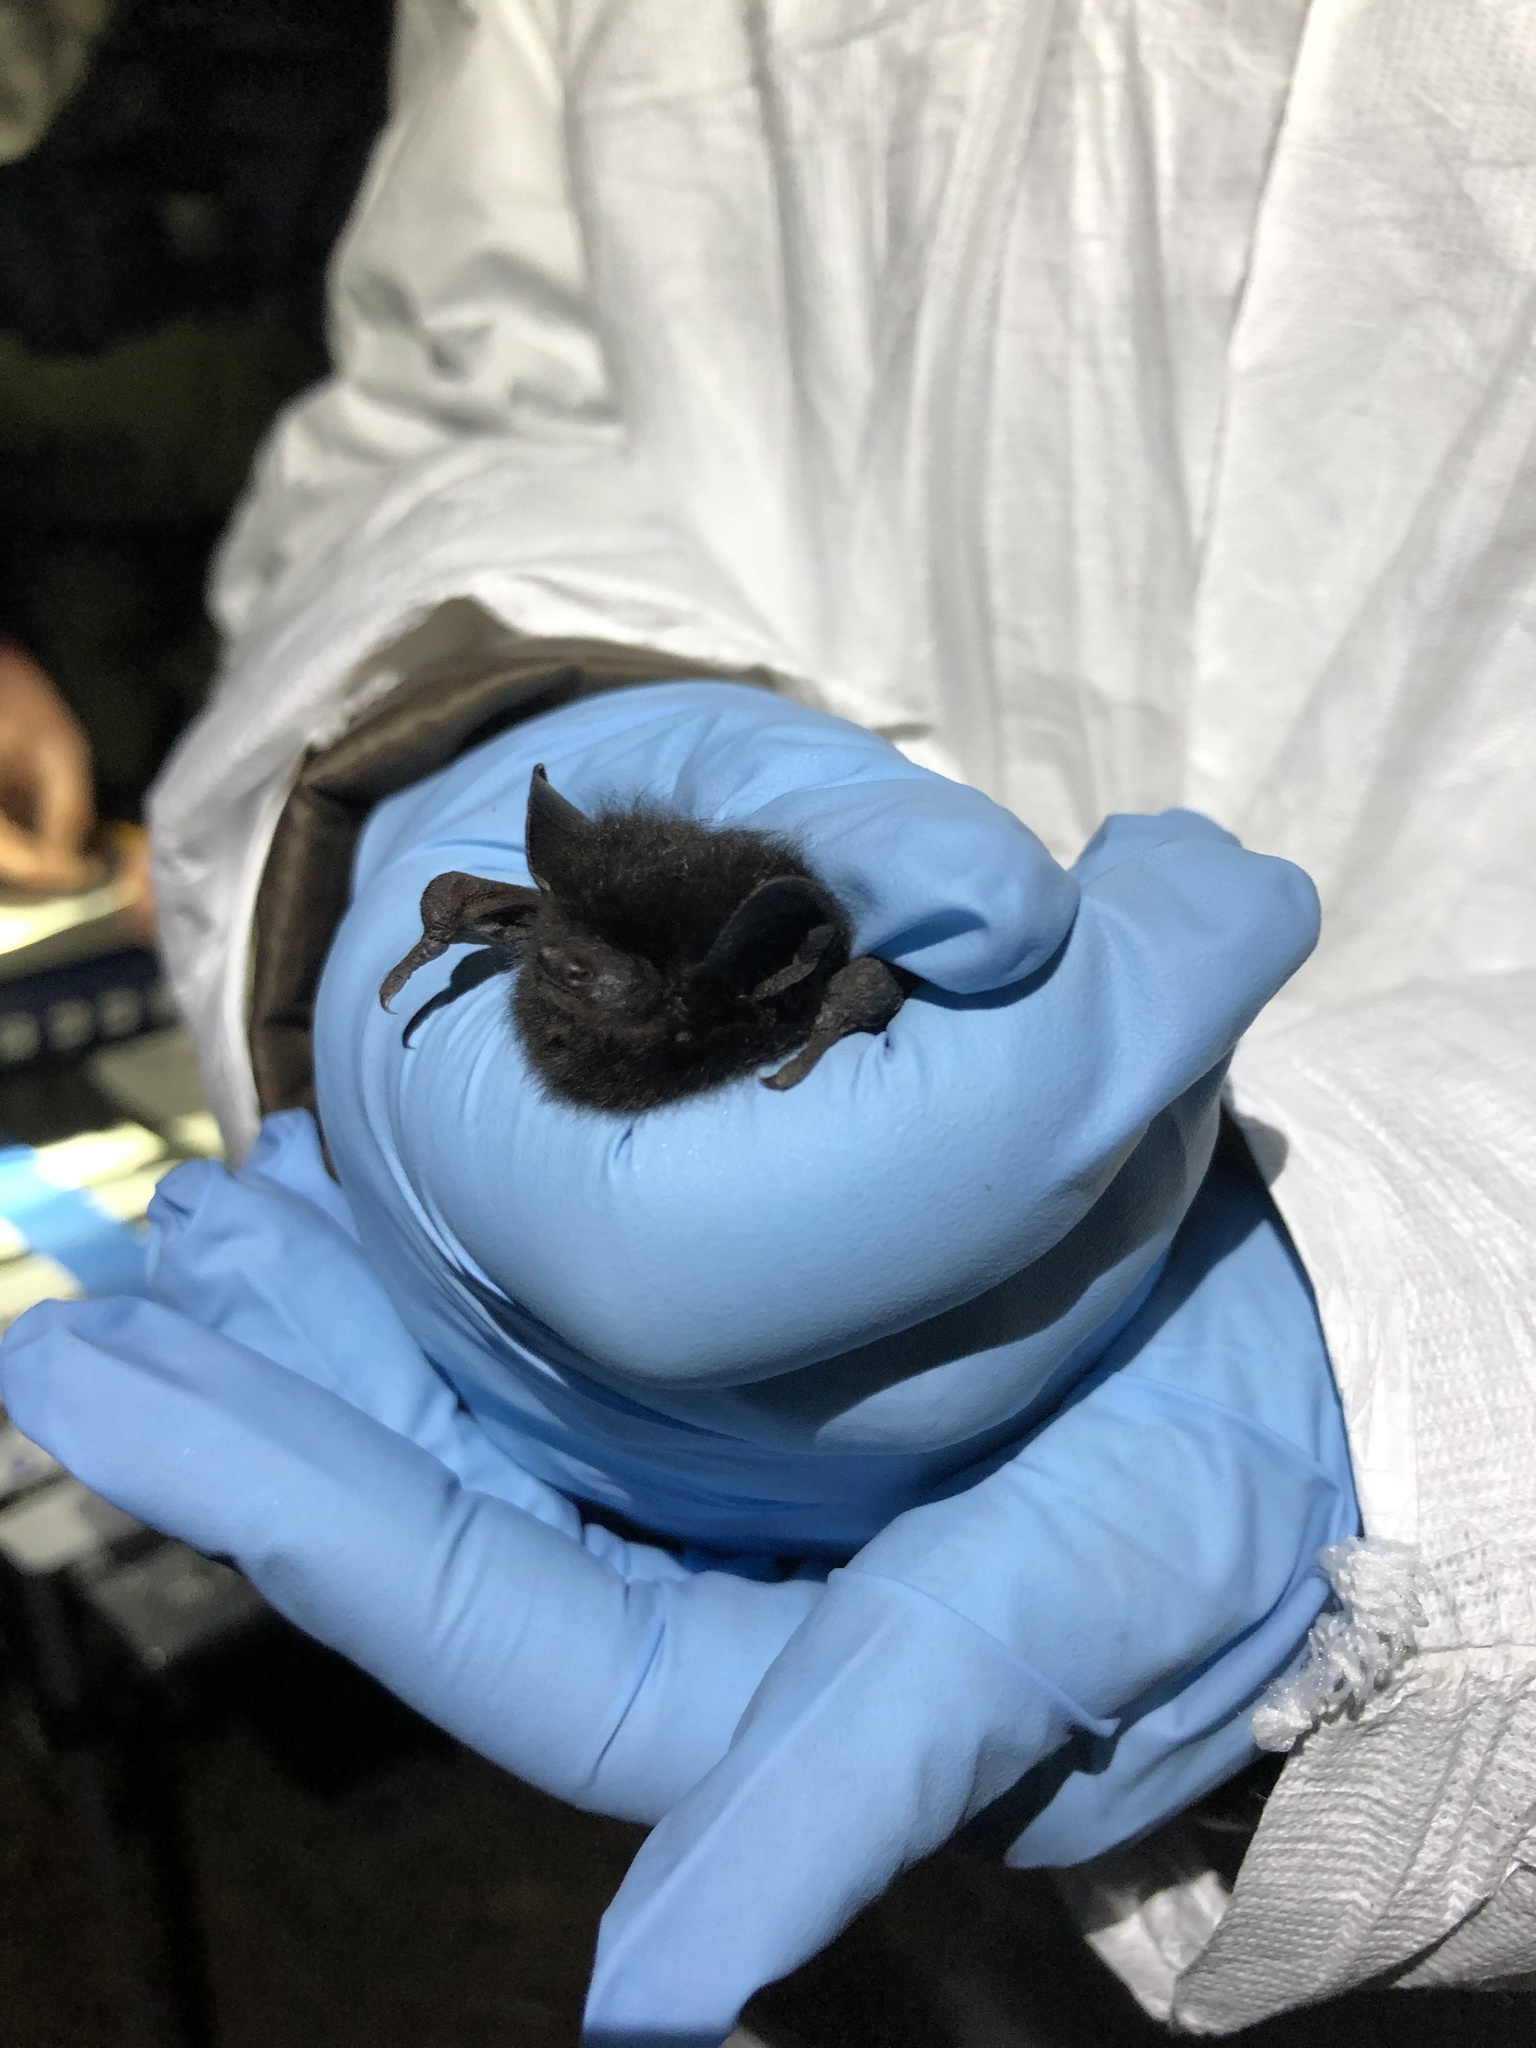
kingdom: Animalia
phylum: Chordata
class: Mammalia
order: Chiroptera
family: Vespertilionidae
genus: Lasionycteris
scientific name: Lasionycteris noctivagans
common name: Silver-haired bat
